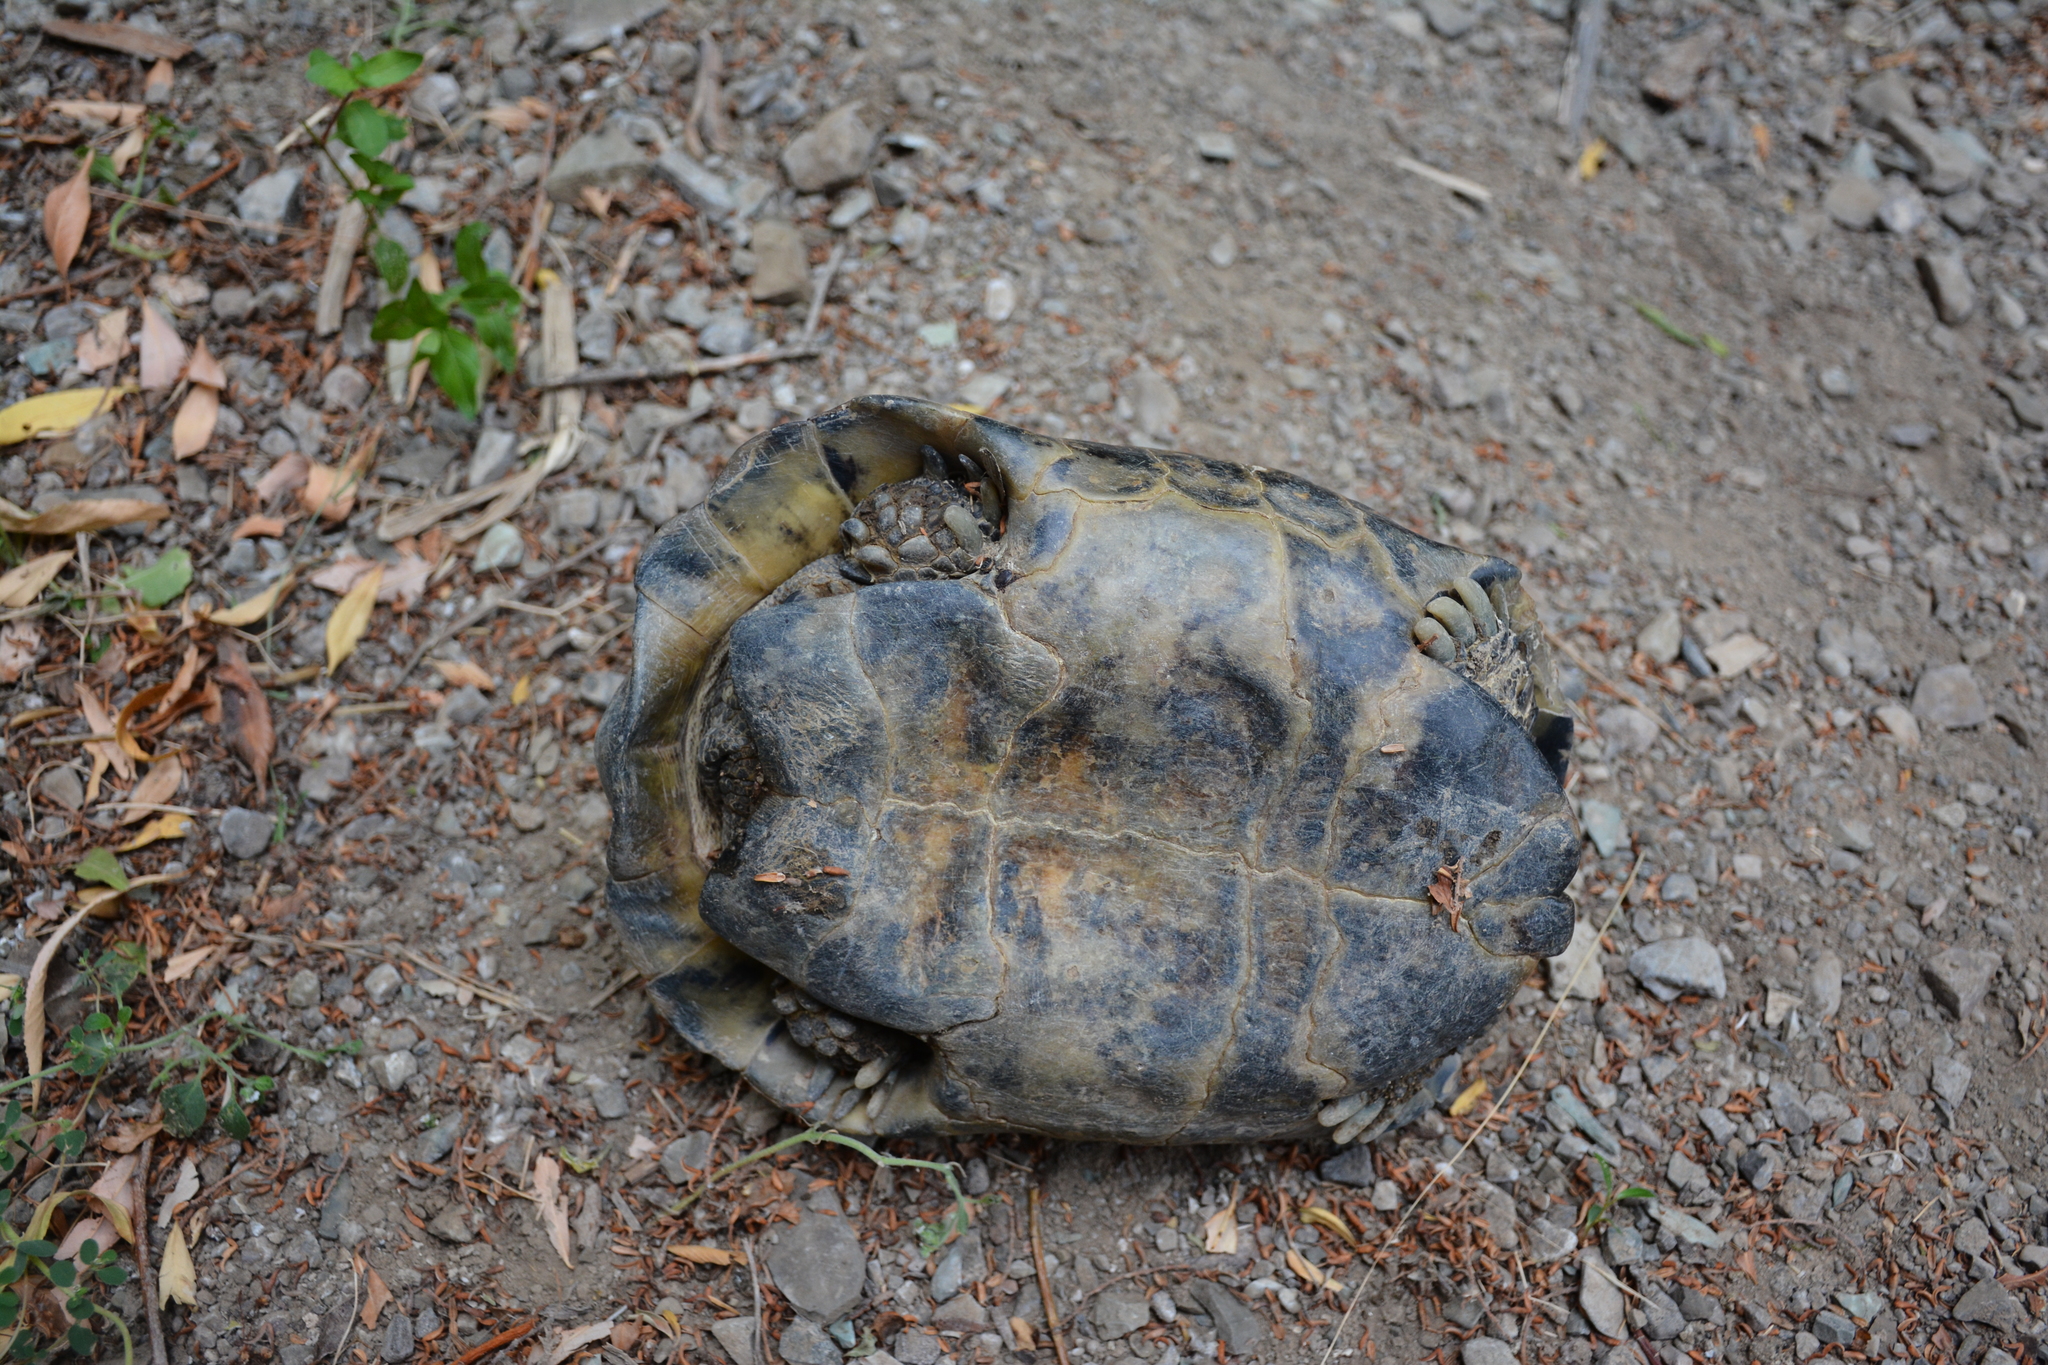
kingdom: Animalia
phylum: Chordata
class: Testudines
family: Testudinidae
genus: Testudo
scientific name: Testudo graeca
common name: Common tortoise
